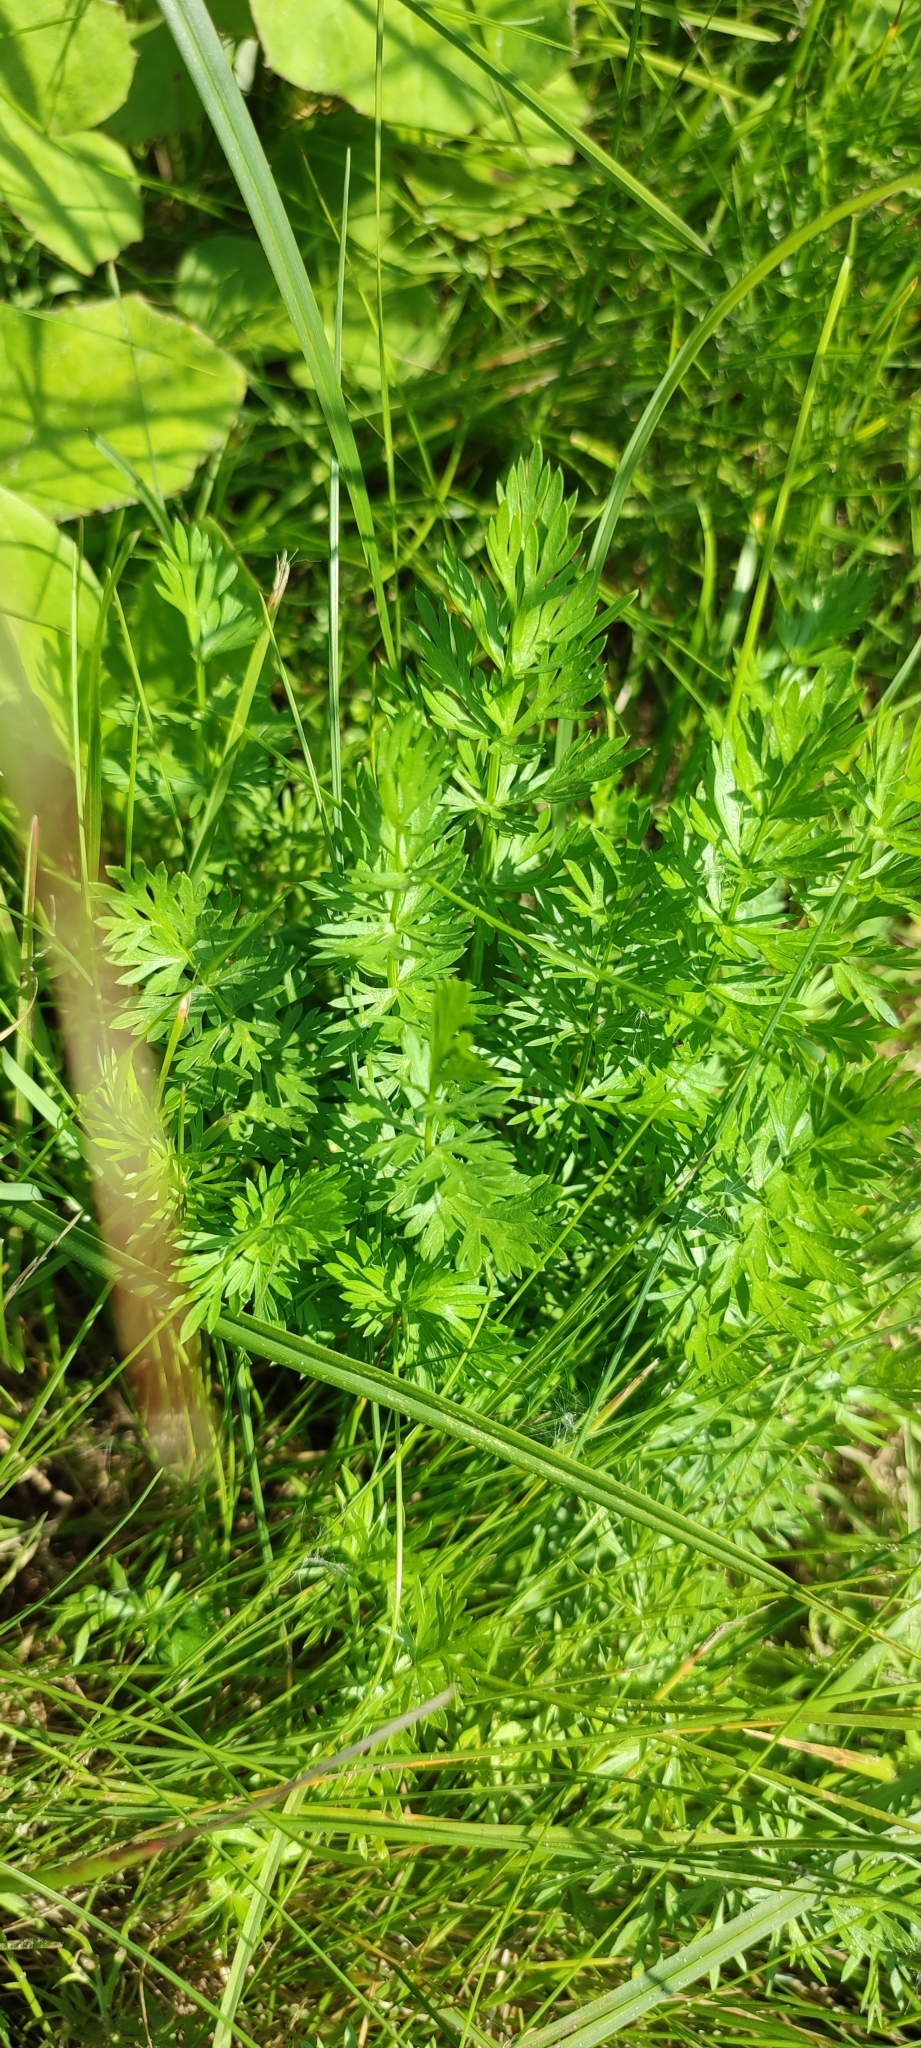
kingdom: Plantae
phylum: Tracheophyta
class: Magnoliopsida
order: Apiales
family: Apiaceae
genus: Carum
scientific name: Carum carvi
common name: Caraway
